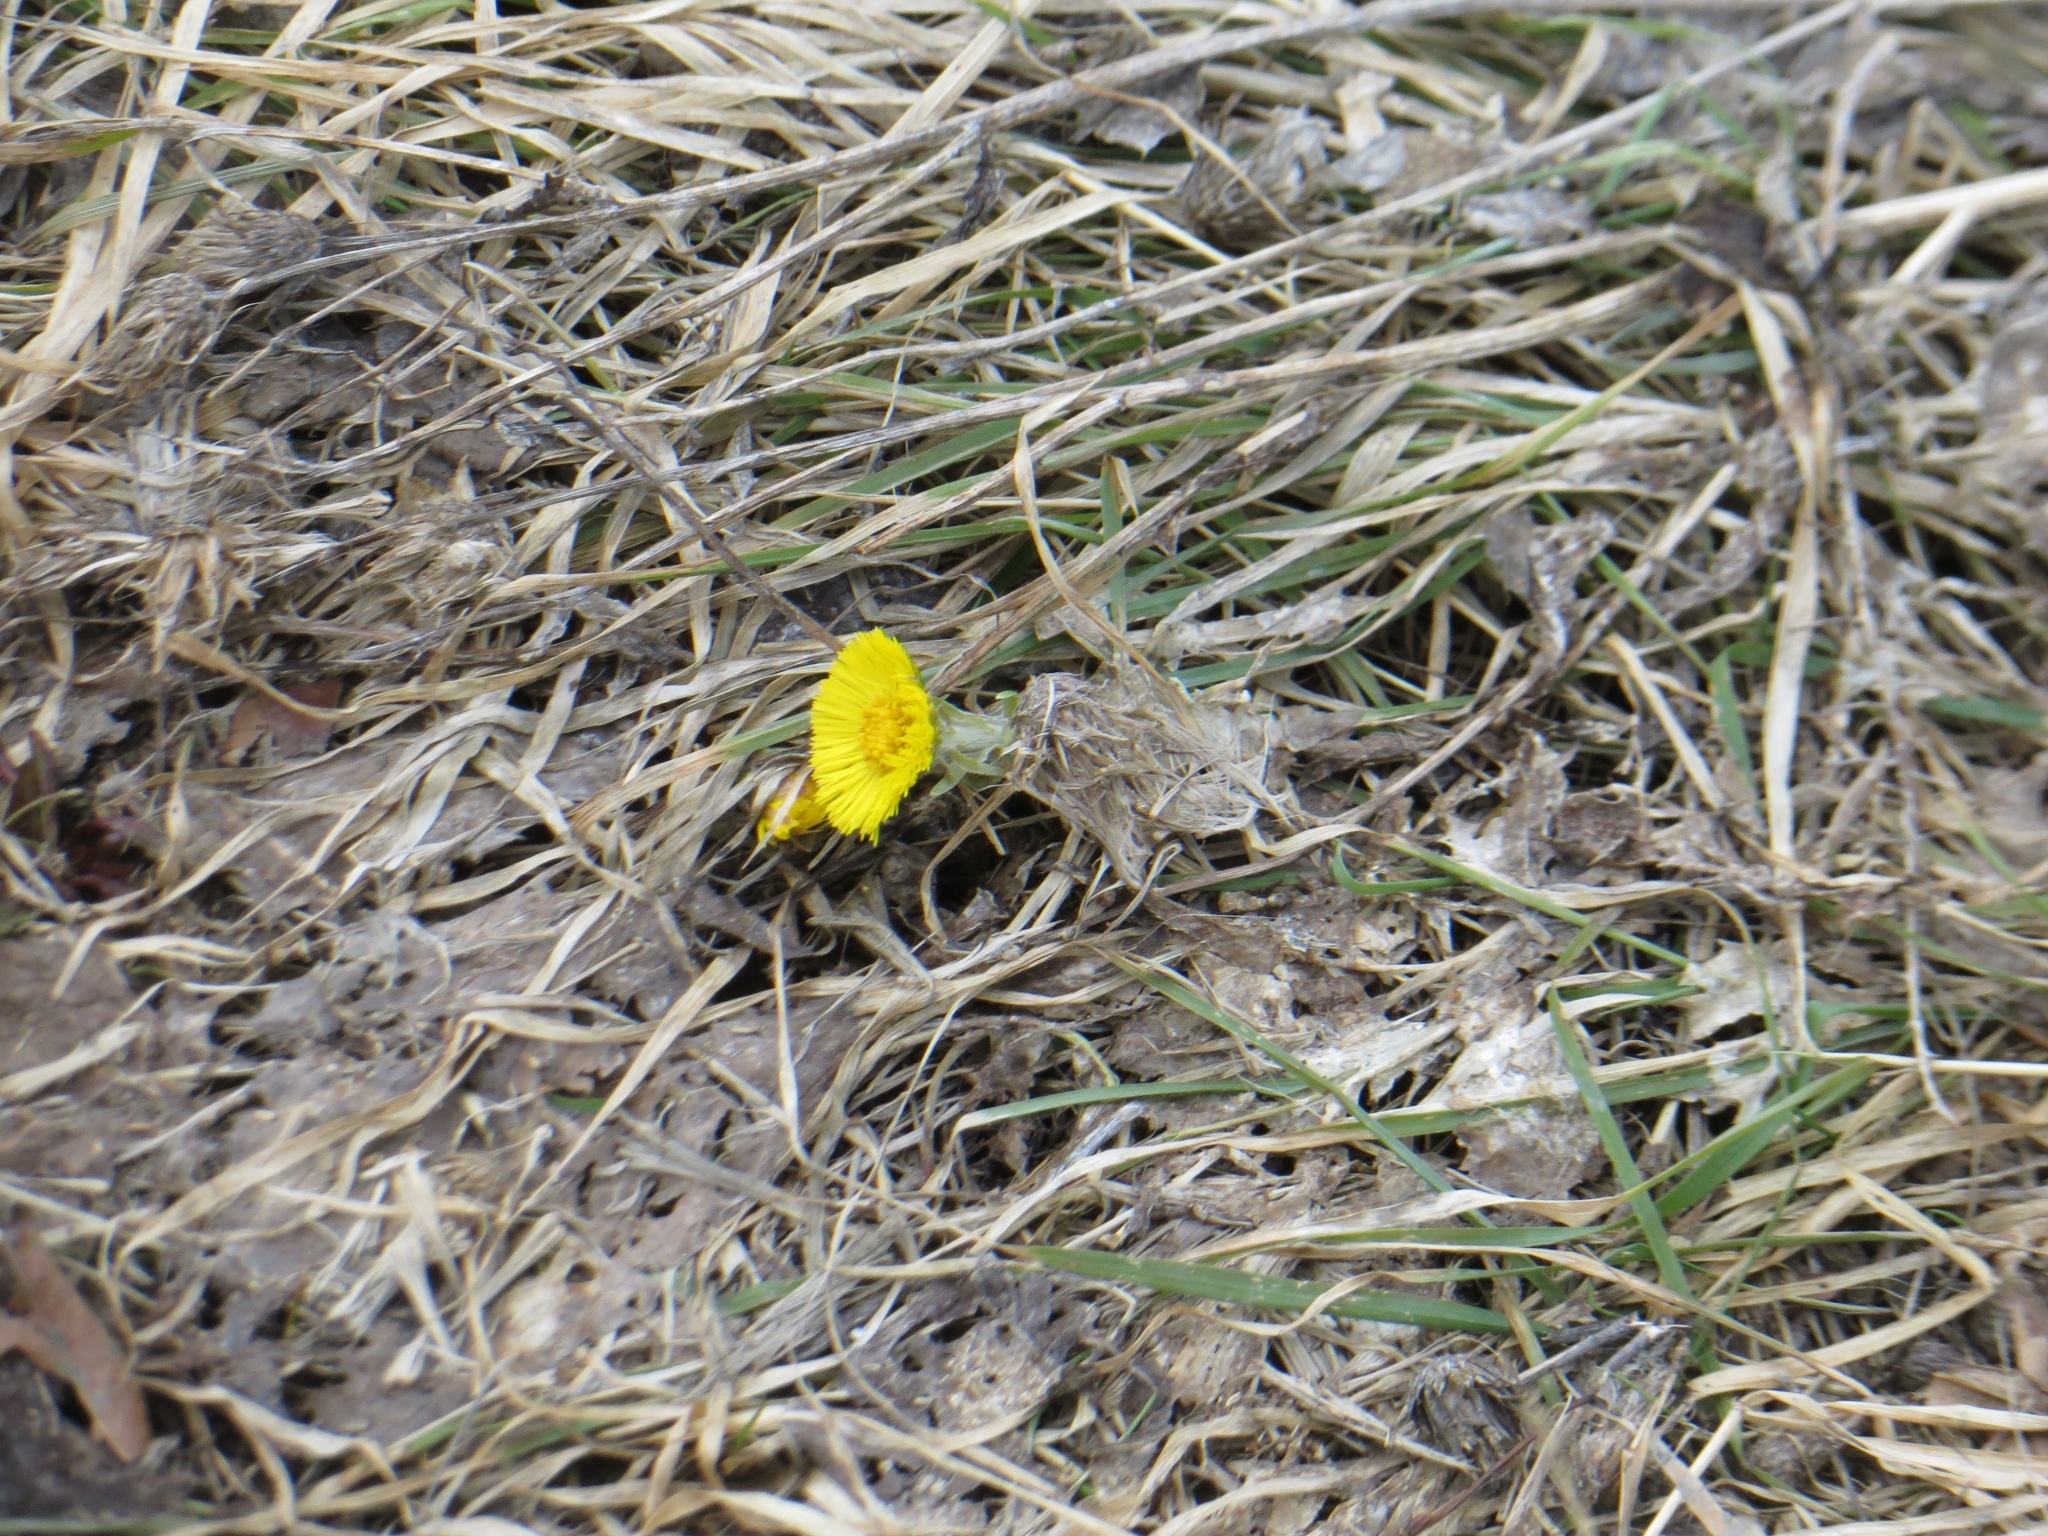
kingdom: Plantae
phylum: Tracheophyta
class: Magnoliopsida
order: Asterales
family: Asteraceae
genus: Tussilago
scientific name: Tussilago farfara
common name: Coltsfoot
